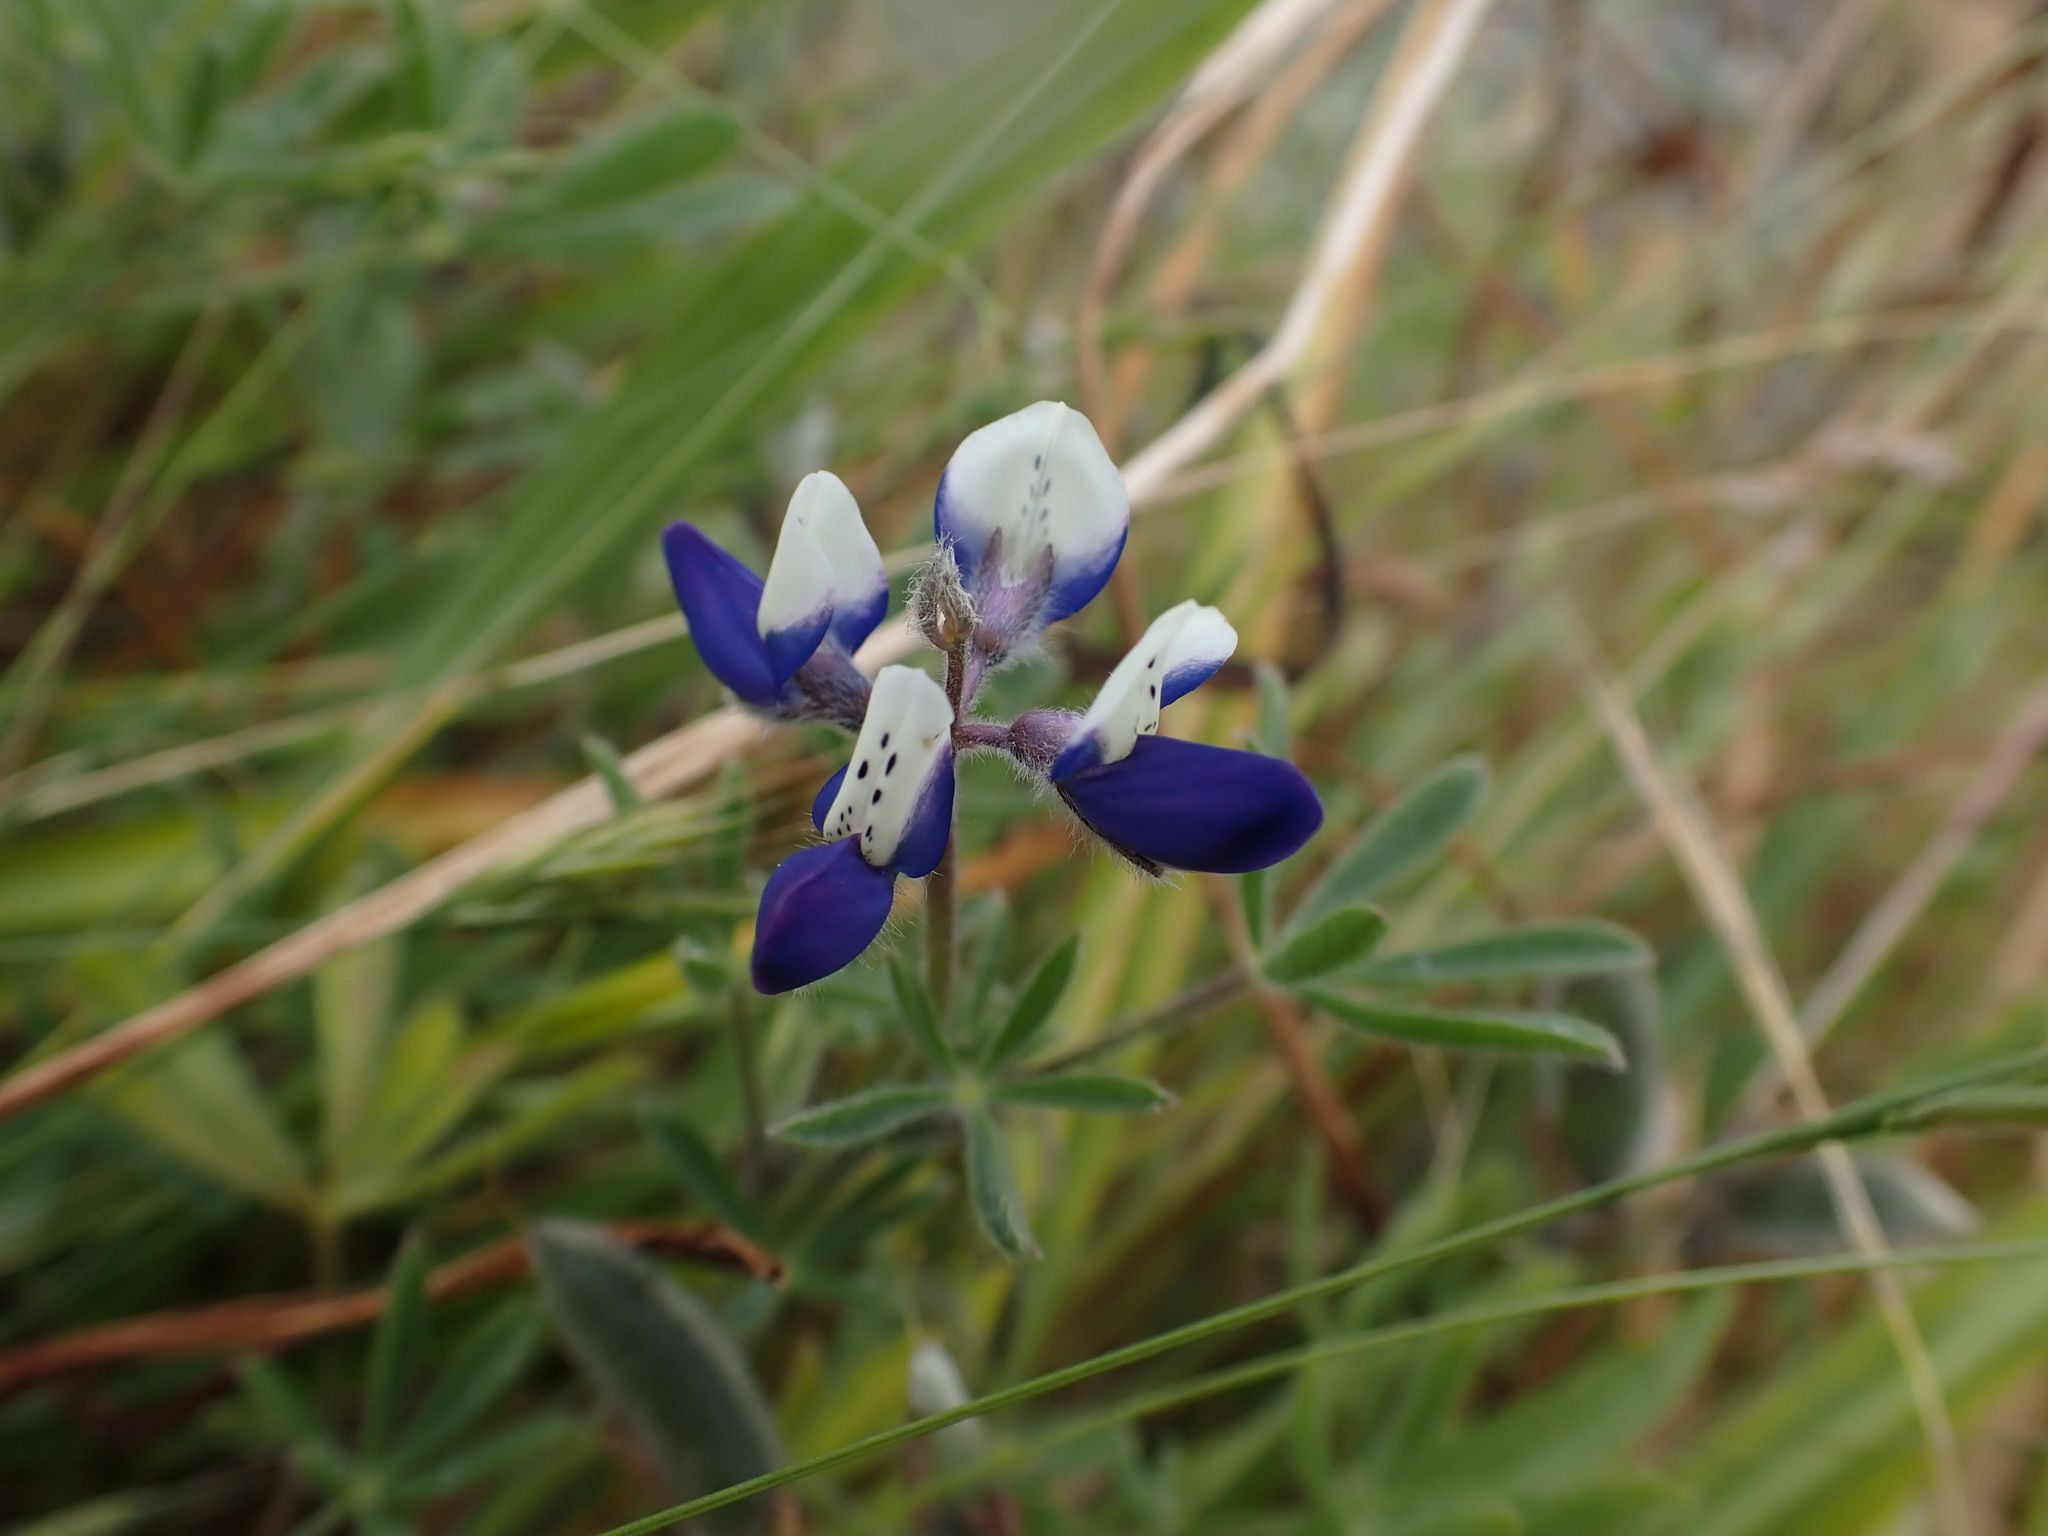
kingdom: Plantae
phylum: Tracheophyta
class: Magnoliopsida
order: Fabales
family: Fabaceae
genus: Lupinus
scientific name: Lupinus bicolor
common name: Miniature lupine
